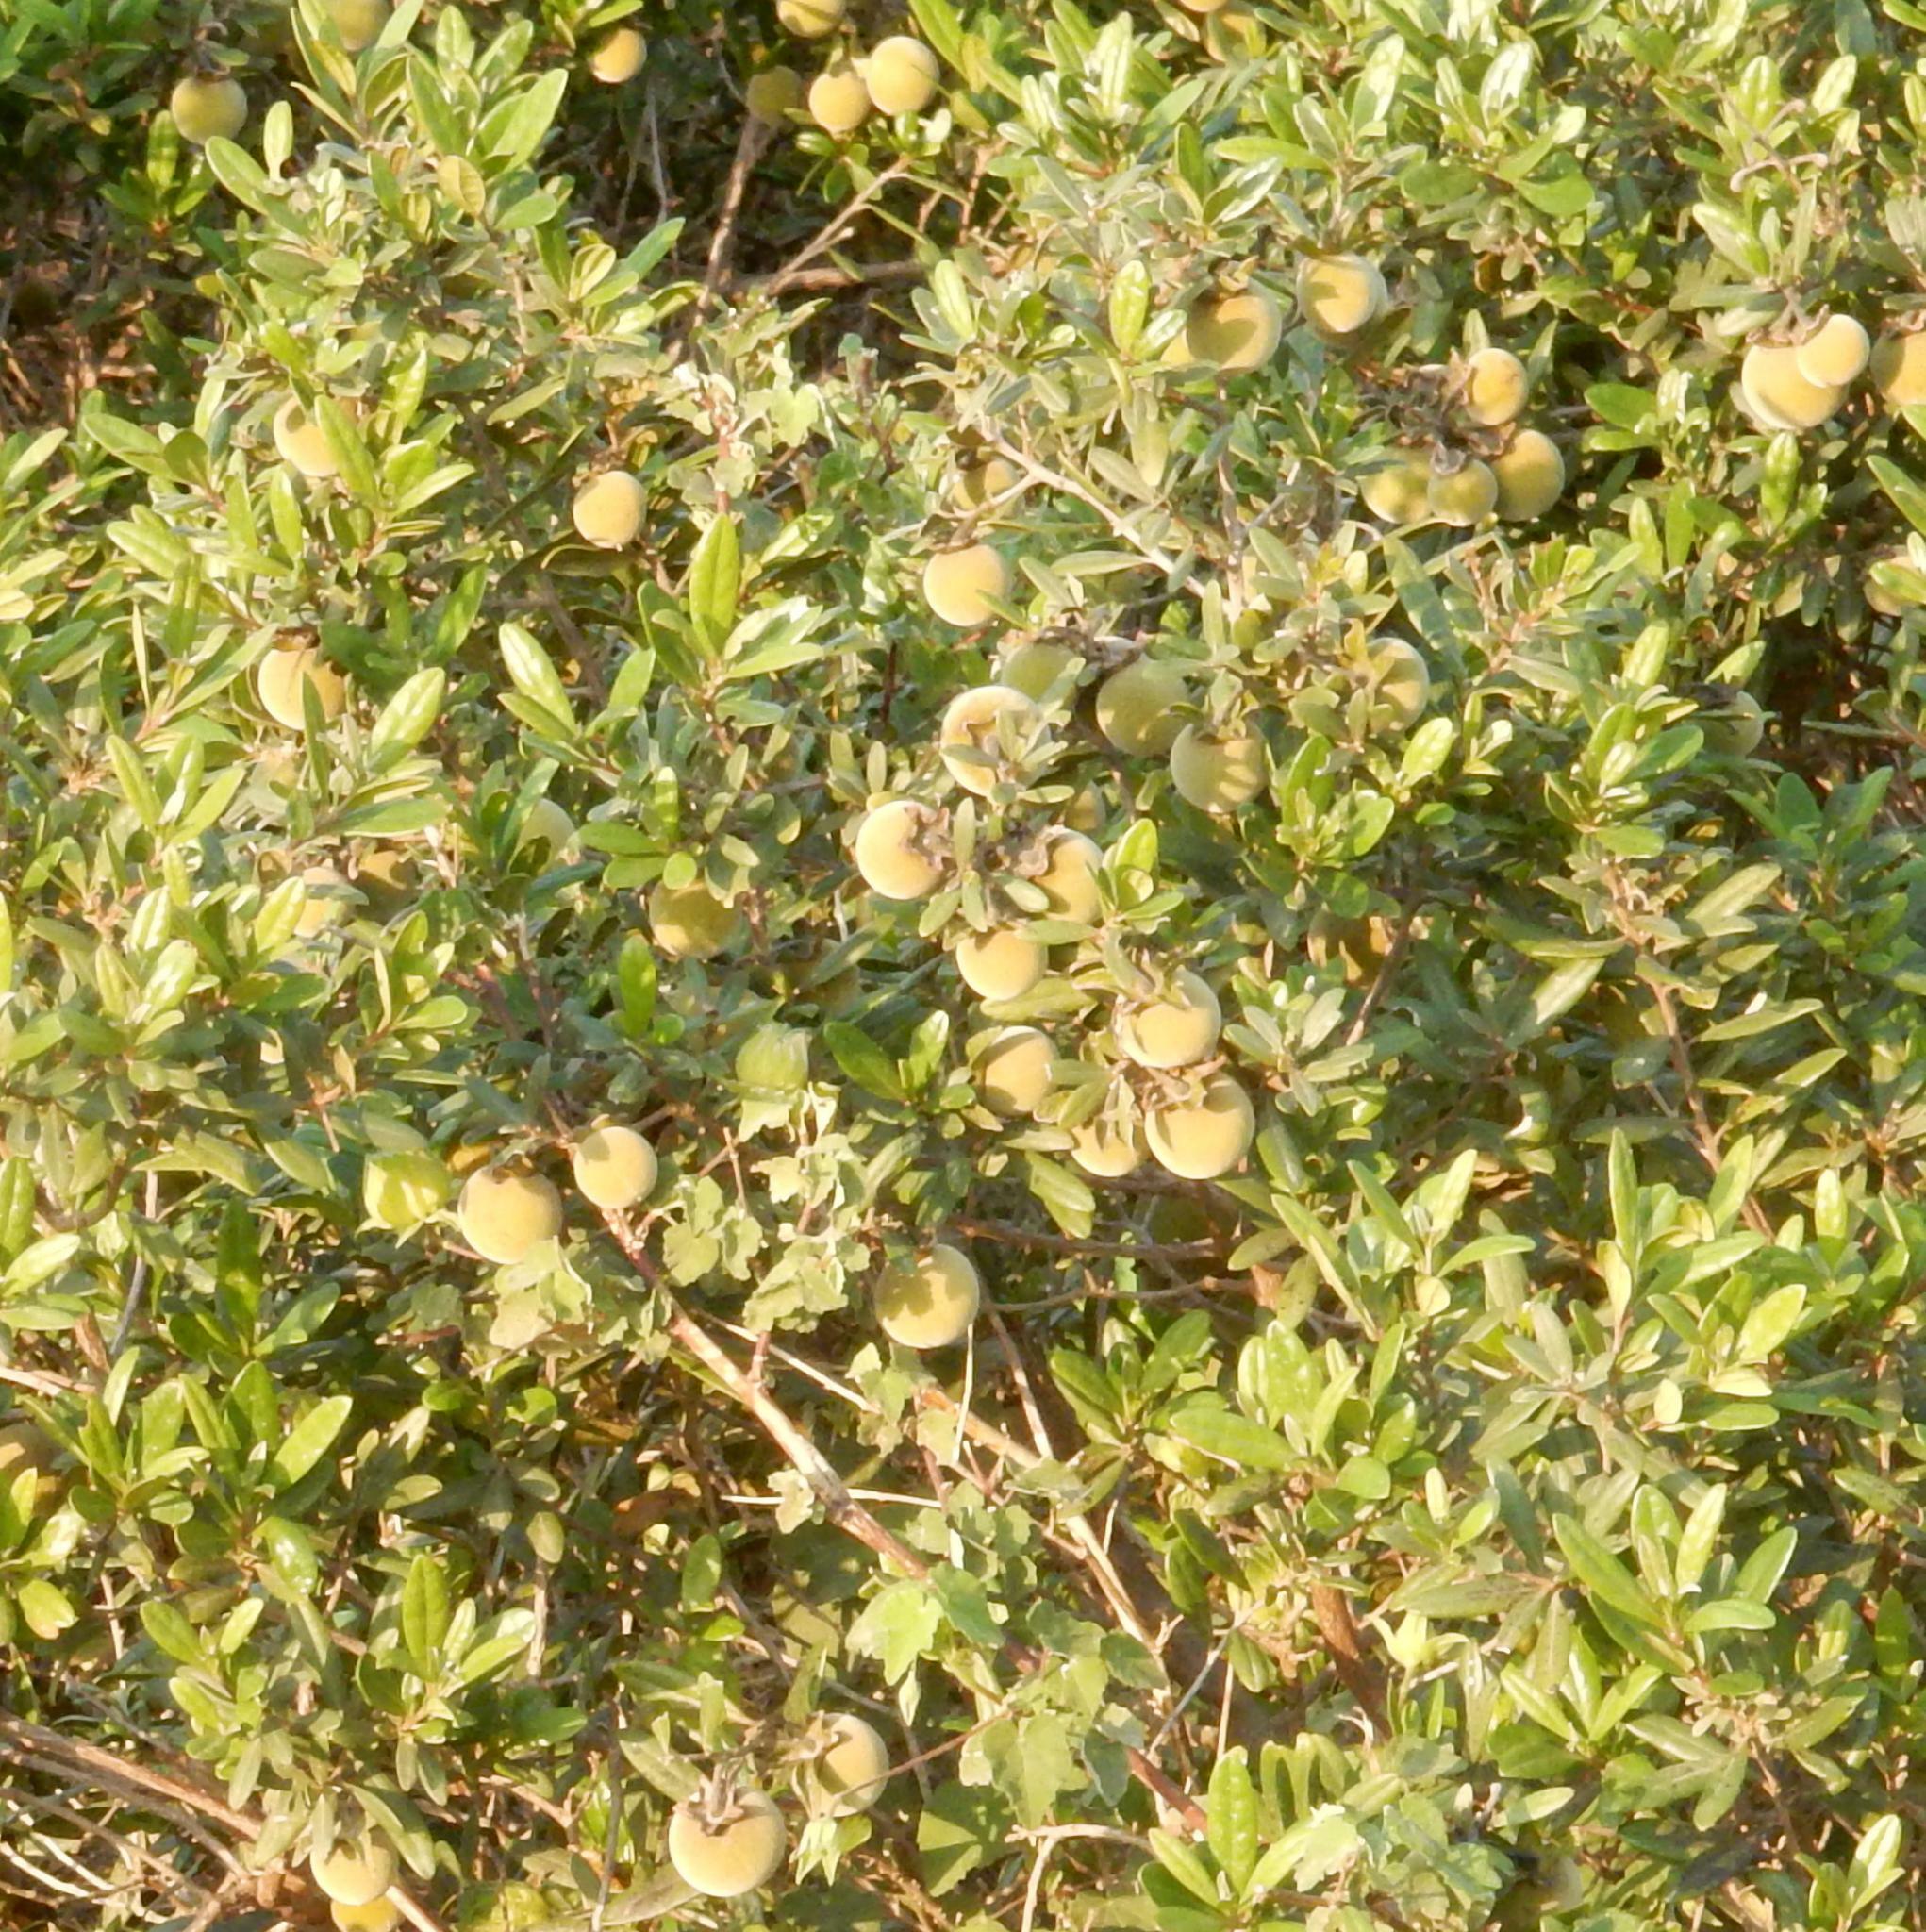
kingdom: Plantae
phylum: Tracheophyta
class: Magnoliopsida
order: Ericales
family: Ebenaceae
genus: Diospyros
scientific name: Diospyros dichrophylla
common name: Common star-apple
